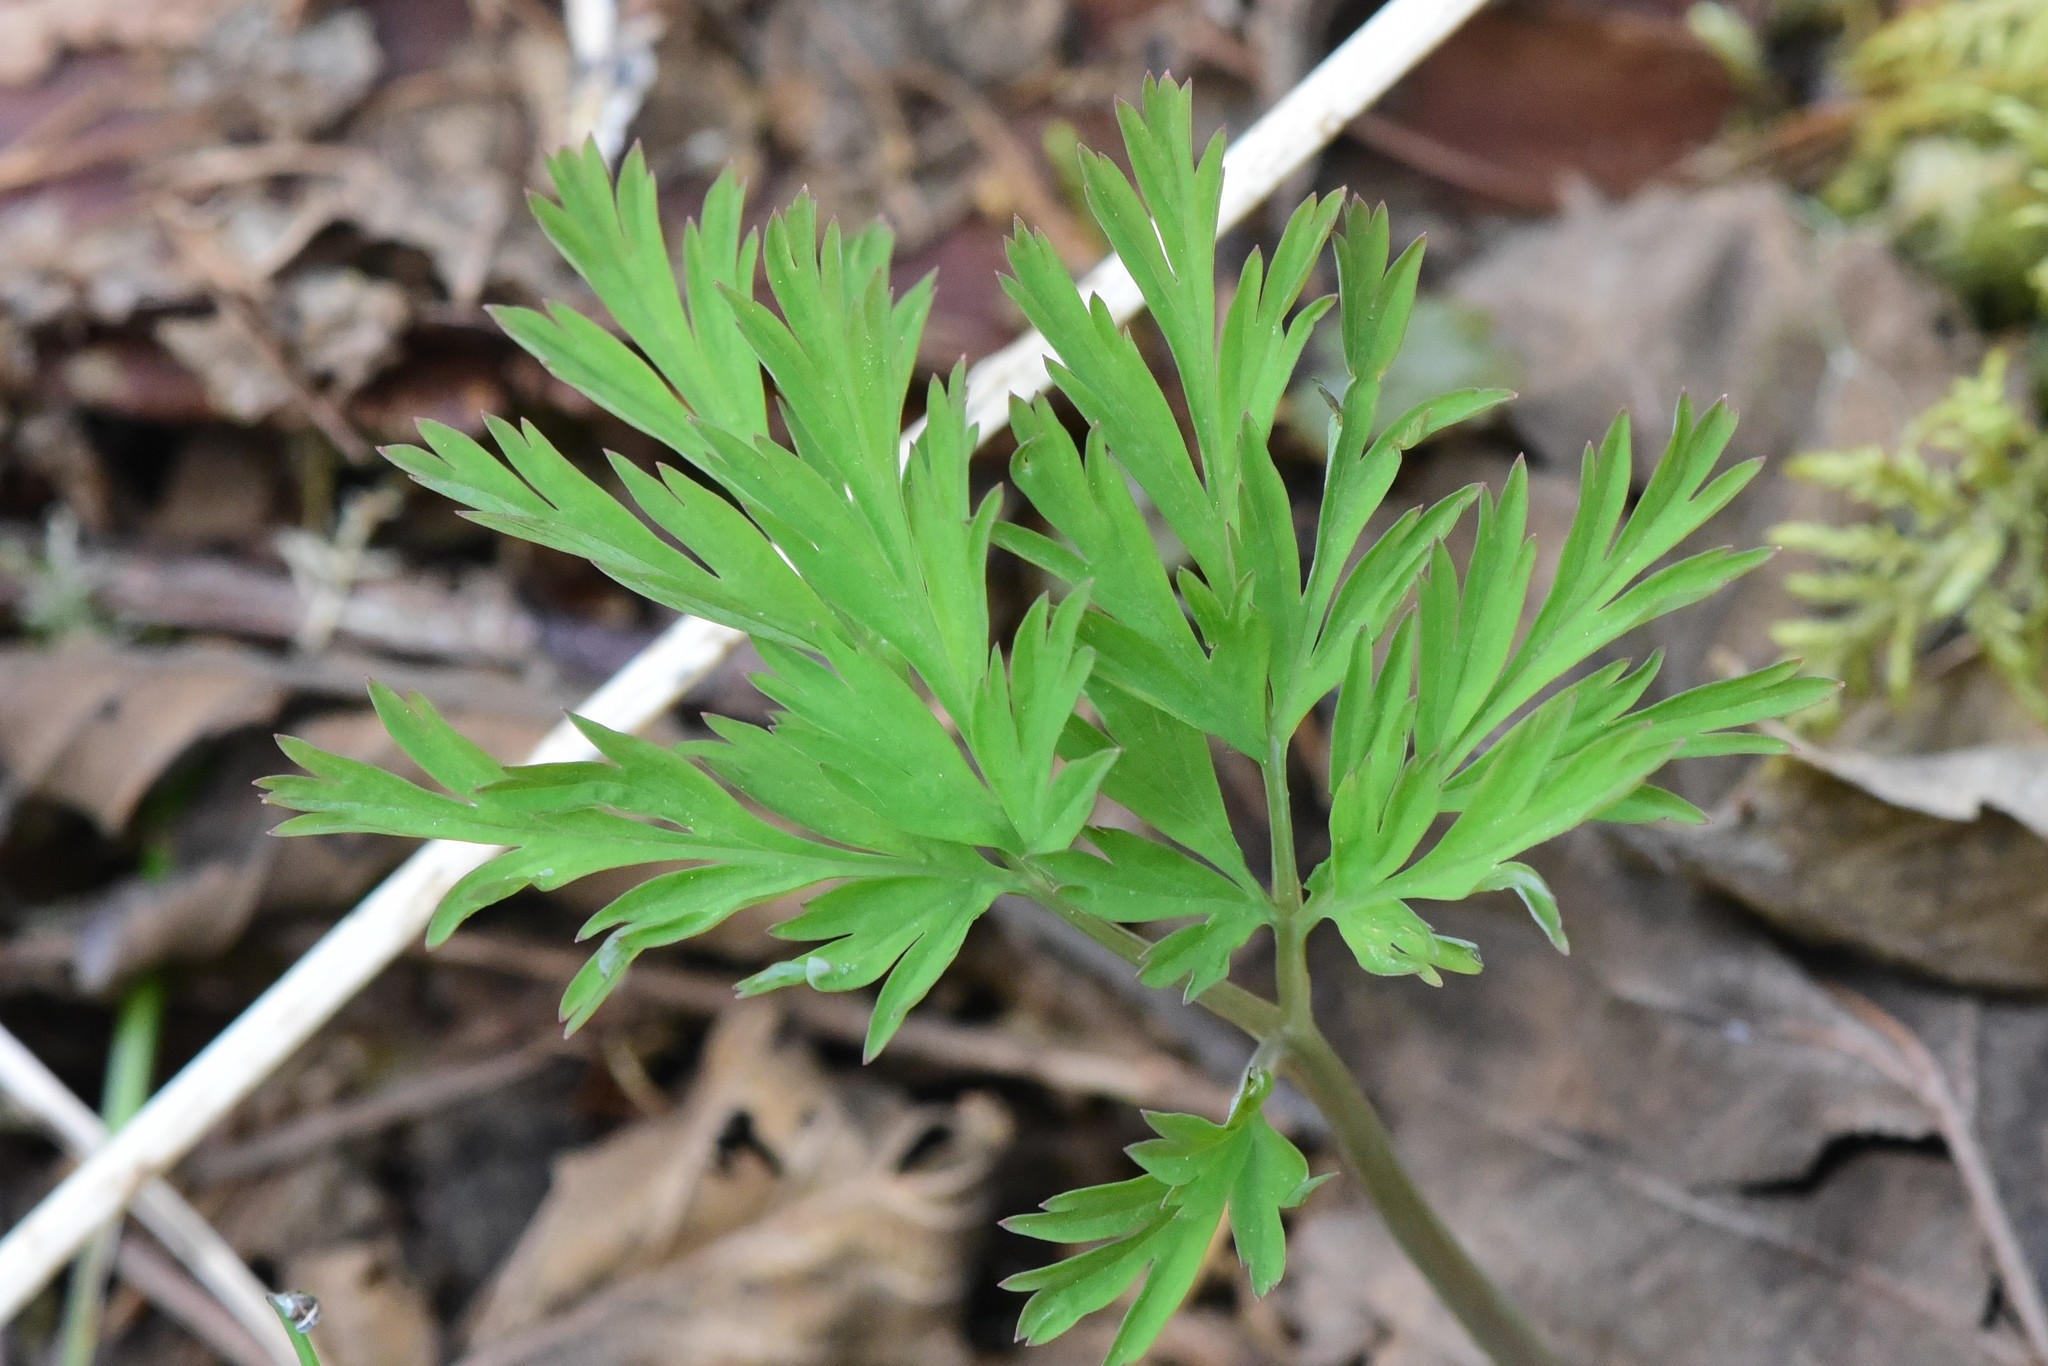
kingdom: Plantae
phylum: Tracheophyta
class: Magnoliopsida
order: Ranunculales
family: Papaveraceae
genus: Dicentra
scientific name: Dicentra formosa
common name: Bleeding-heart
